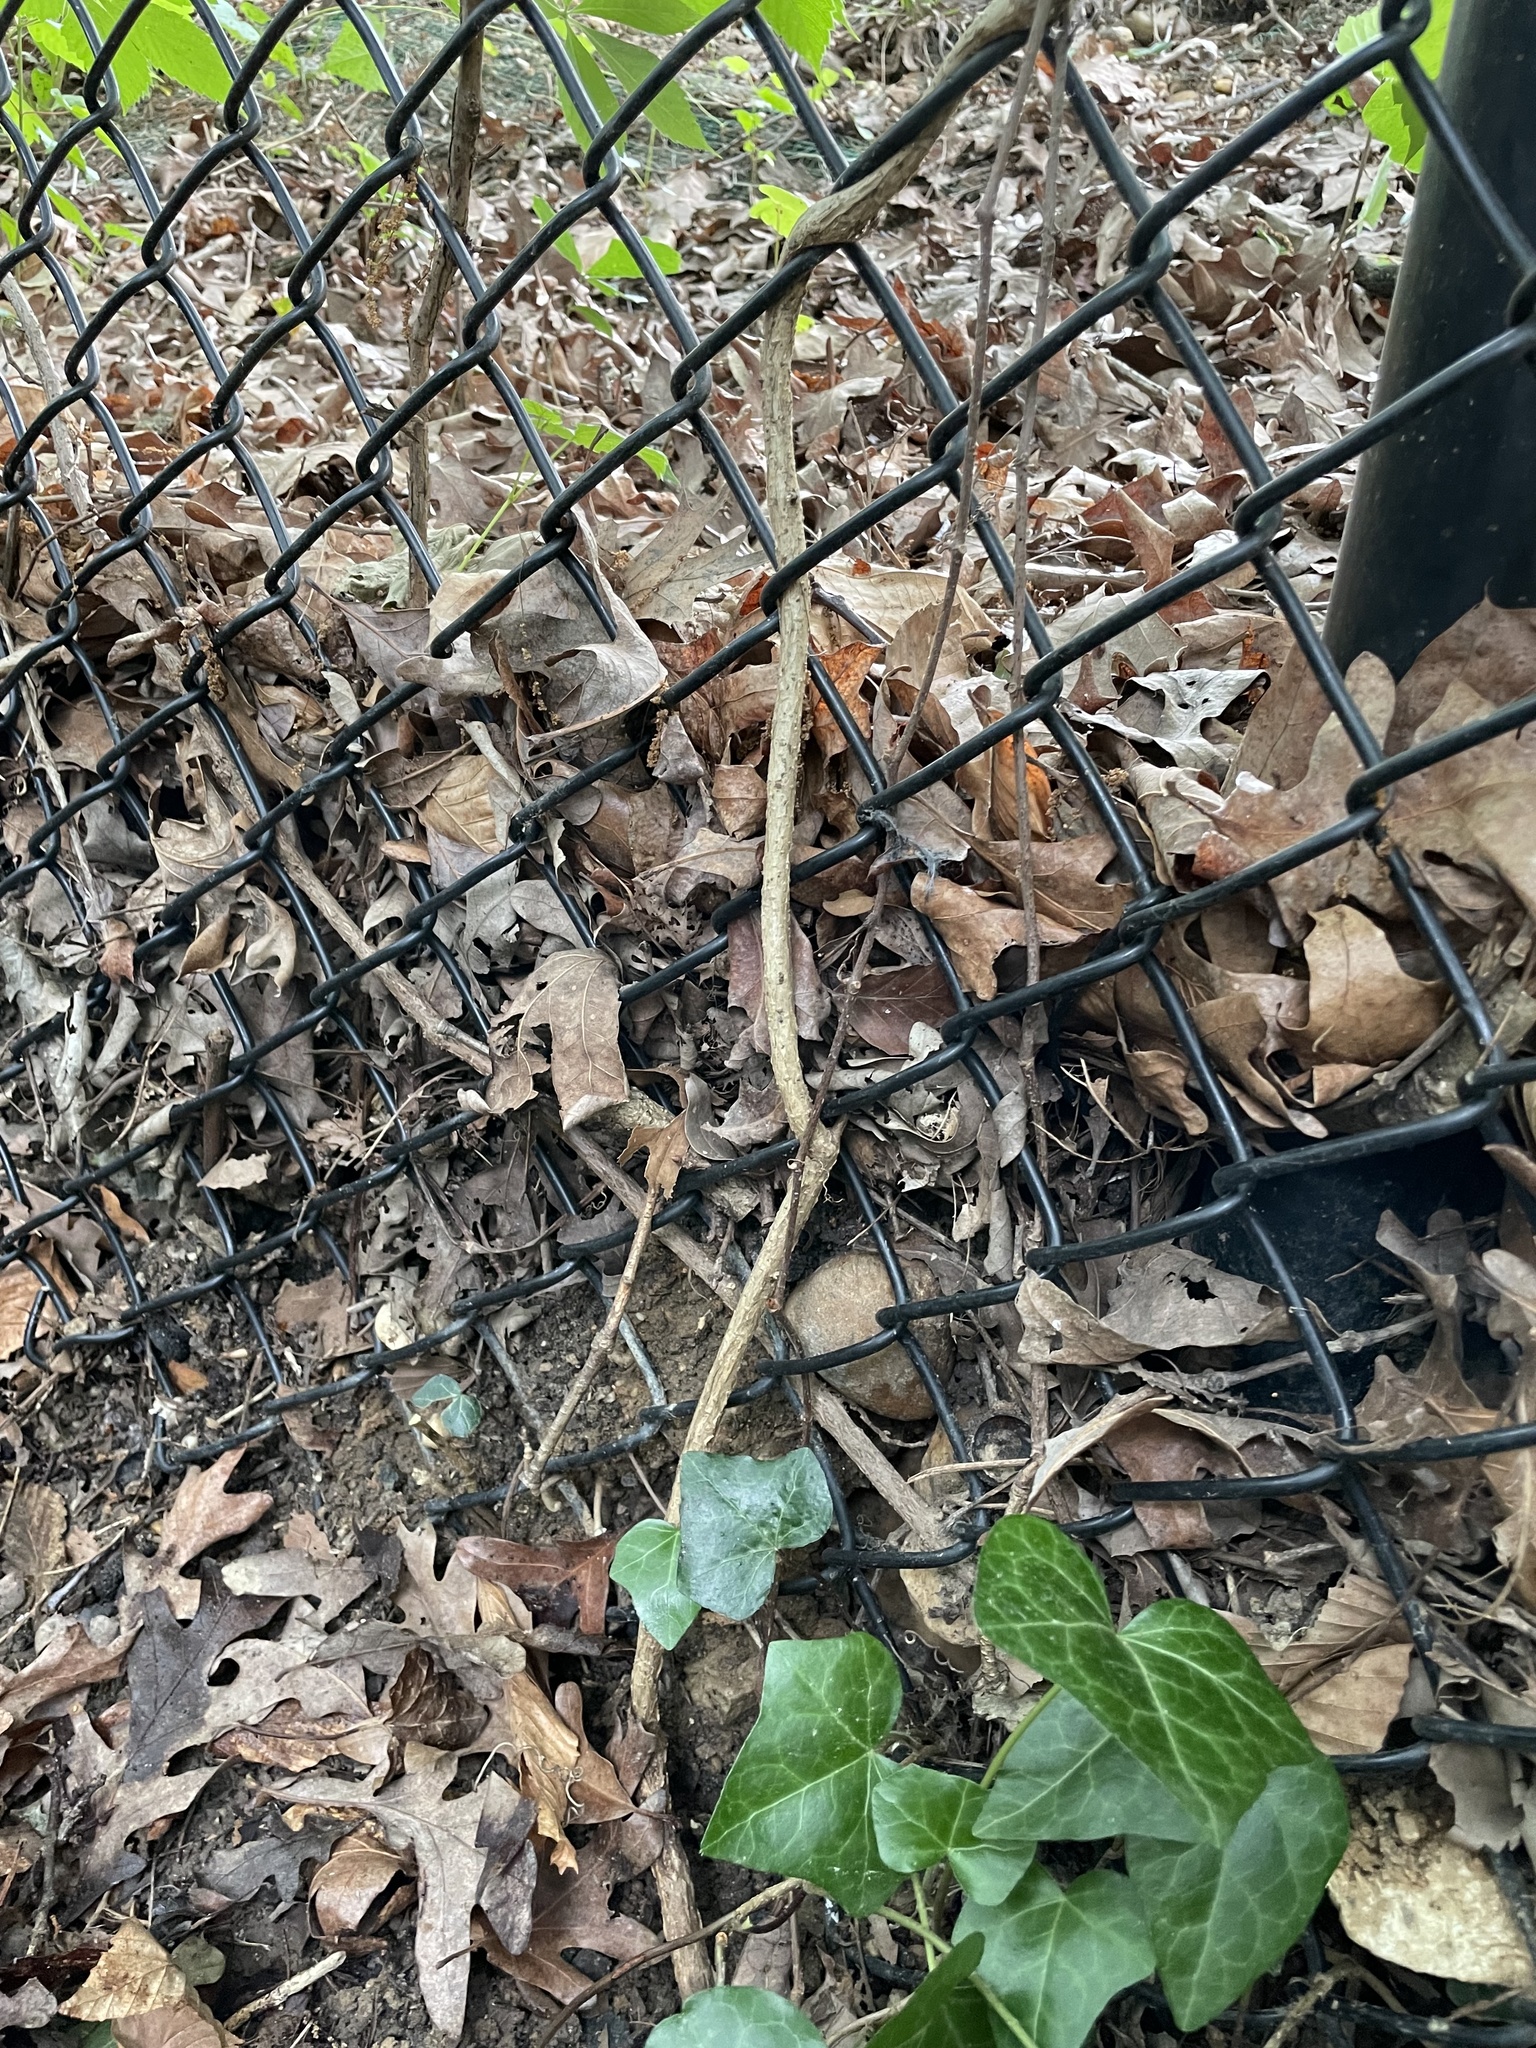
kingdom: Plantae
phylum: Tracheophyta
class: Magnoliopsida
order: Apiales
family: Araliaceae
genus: Hedera
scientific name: Hedera helix
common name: Ivy
